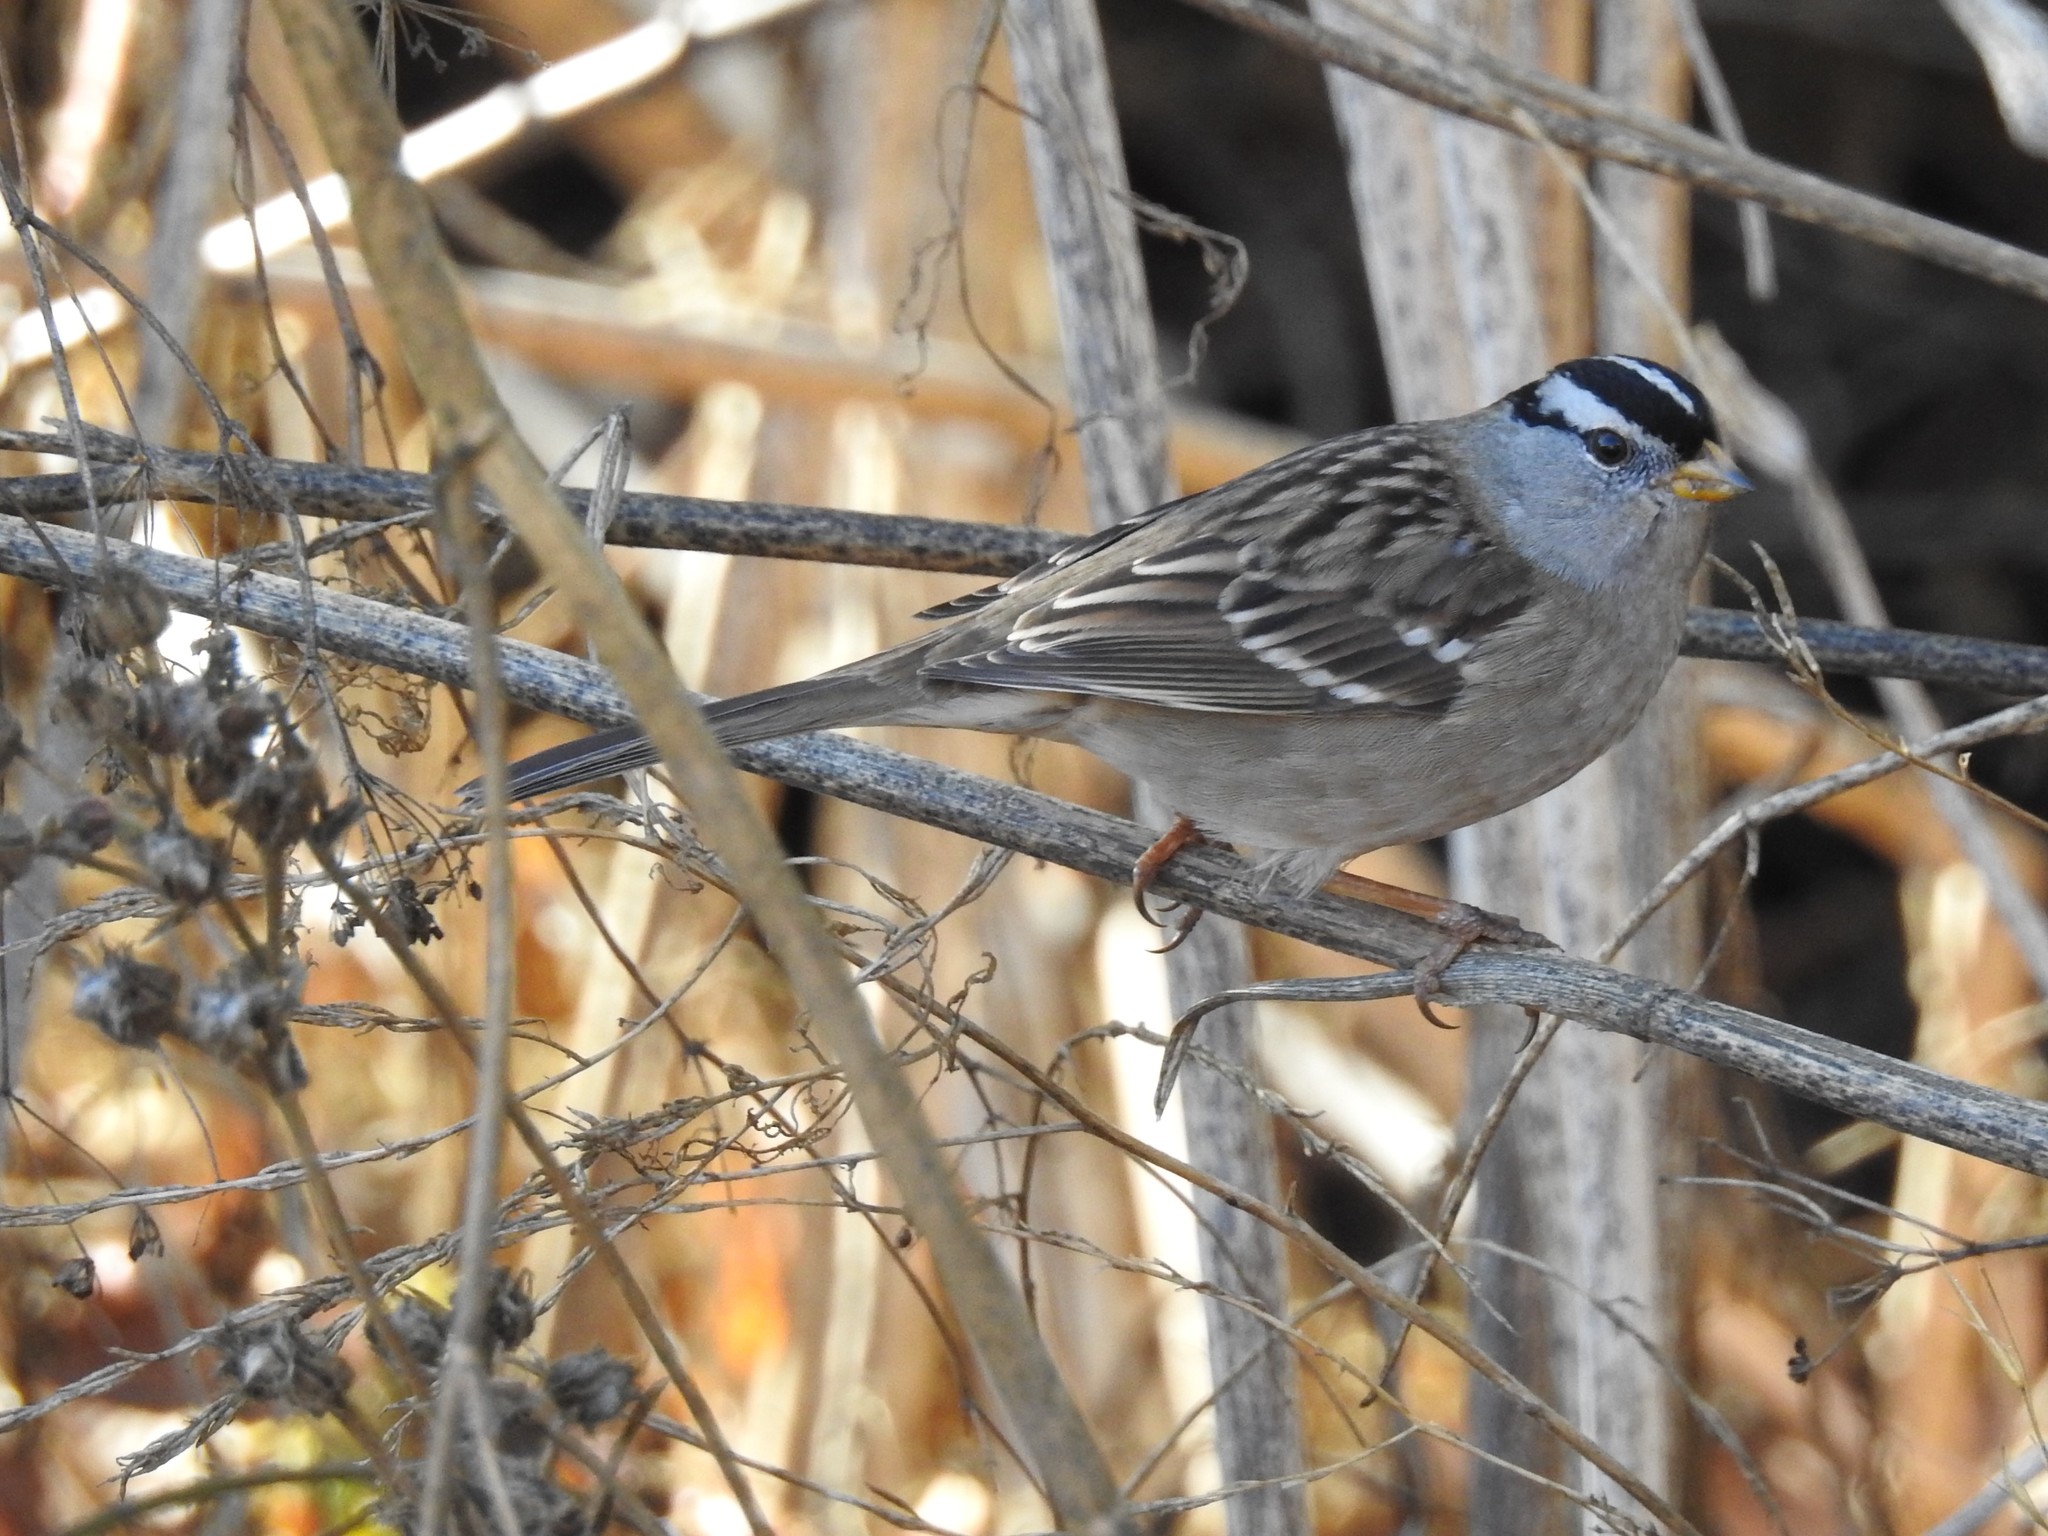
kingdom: Animalia
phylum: Chordata
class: Aves
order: Passeriformes
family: Passerellidae
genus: Zonotrichia
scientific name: Zonotrichia leucophrys
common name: White-crowned sparrow
